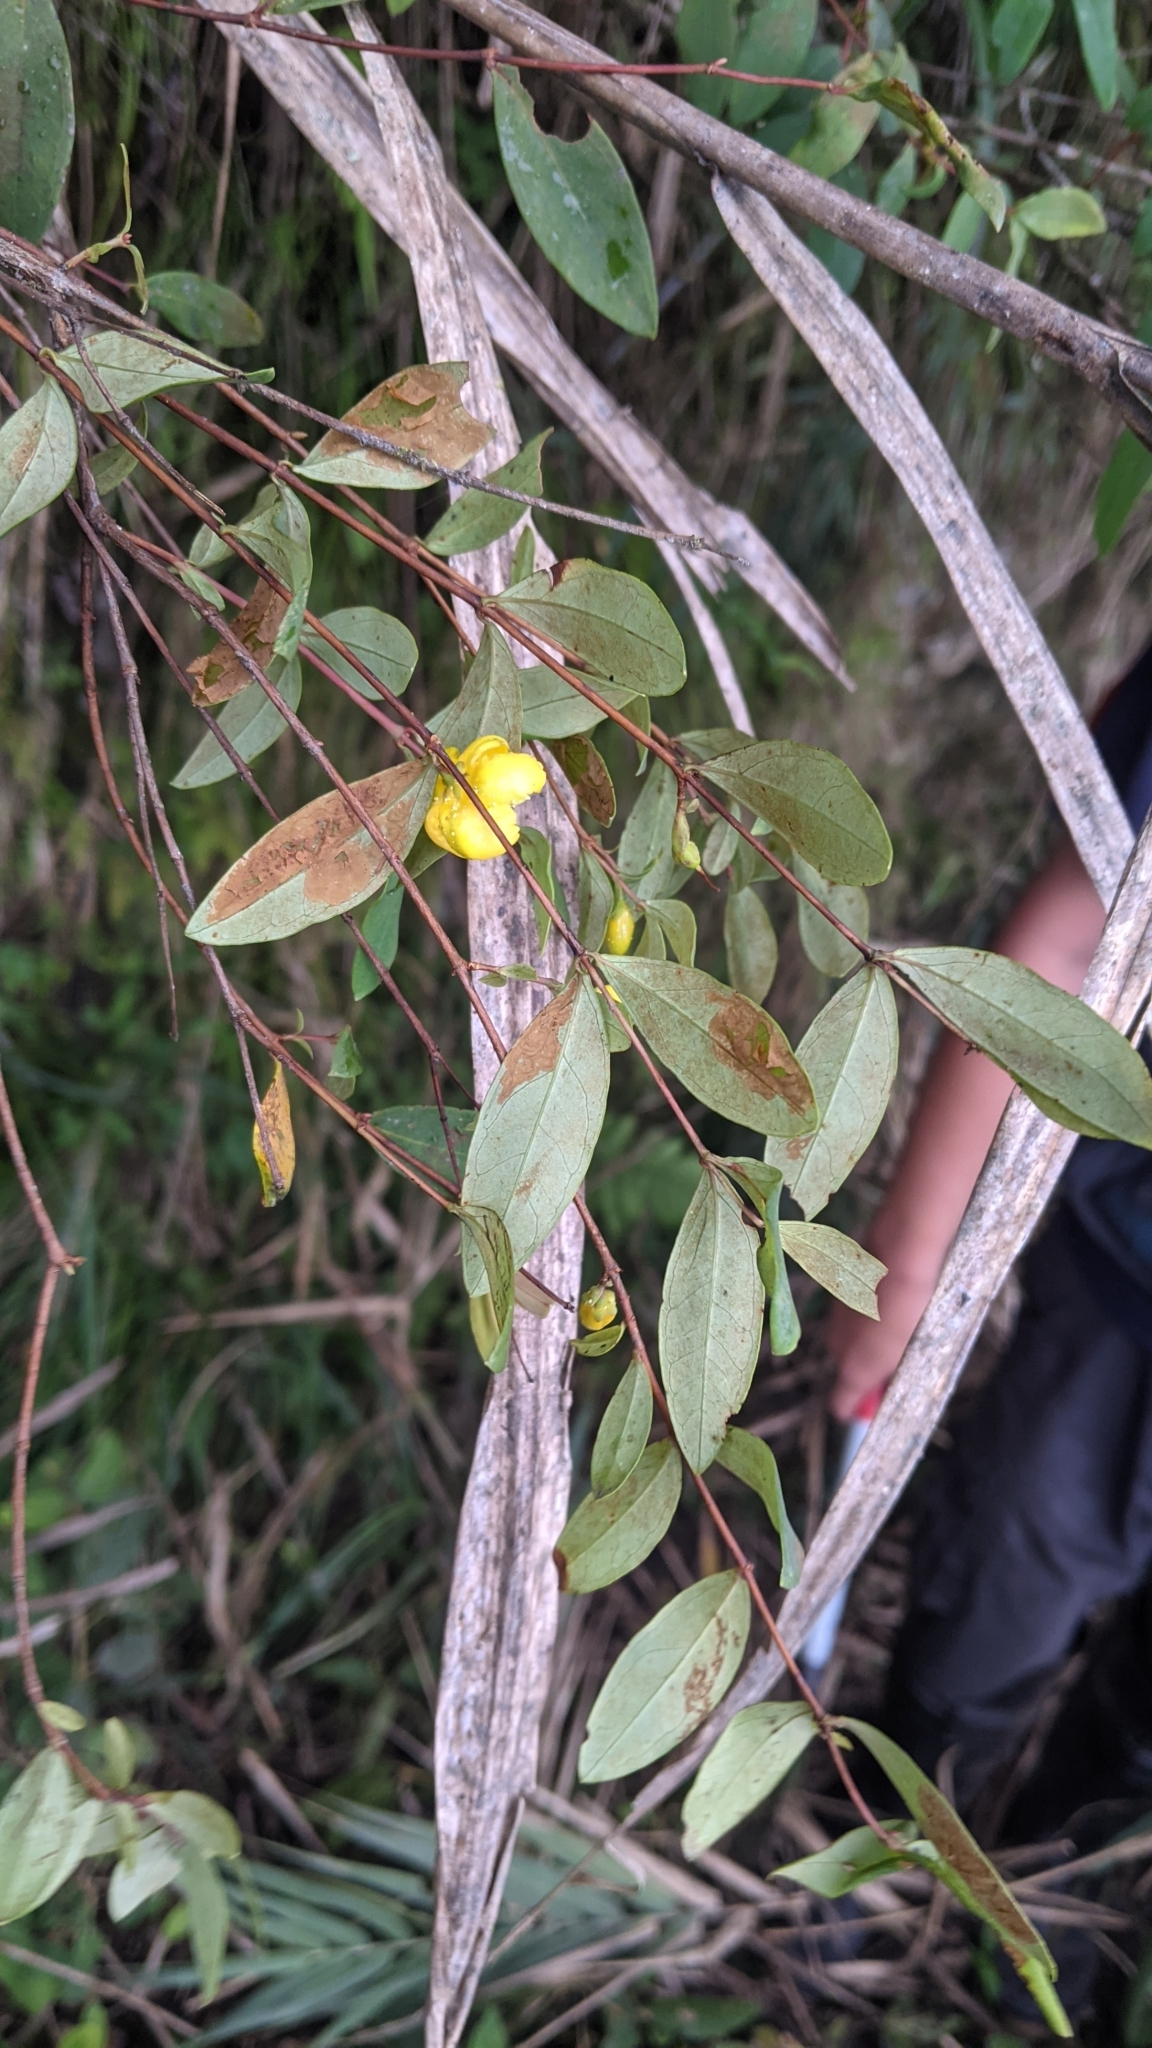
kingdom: Plantae
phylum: Tracheophyta
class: Magnoliopsida
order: Malpighiales
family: Hypericaceae
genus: Hypericum
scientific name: Hypericum geminiflorum
